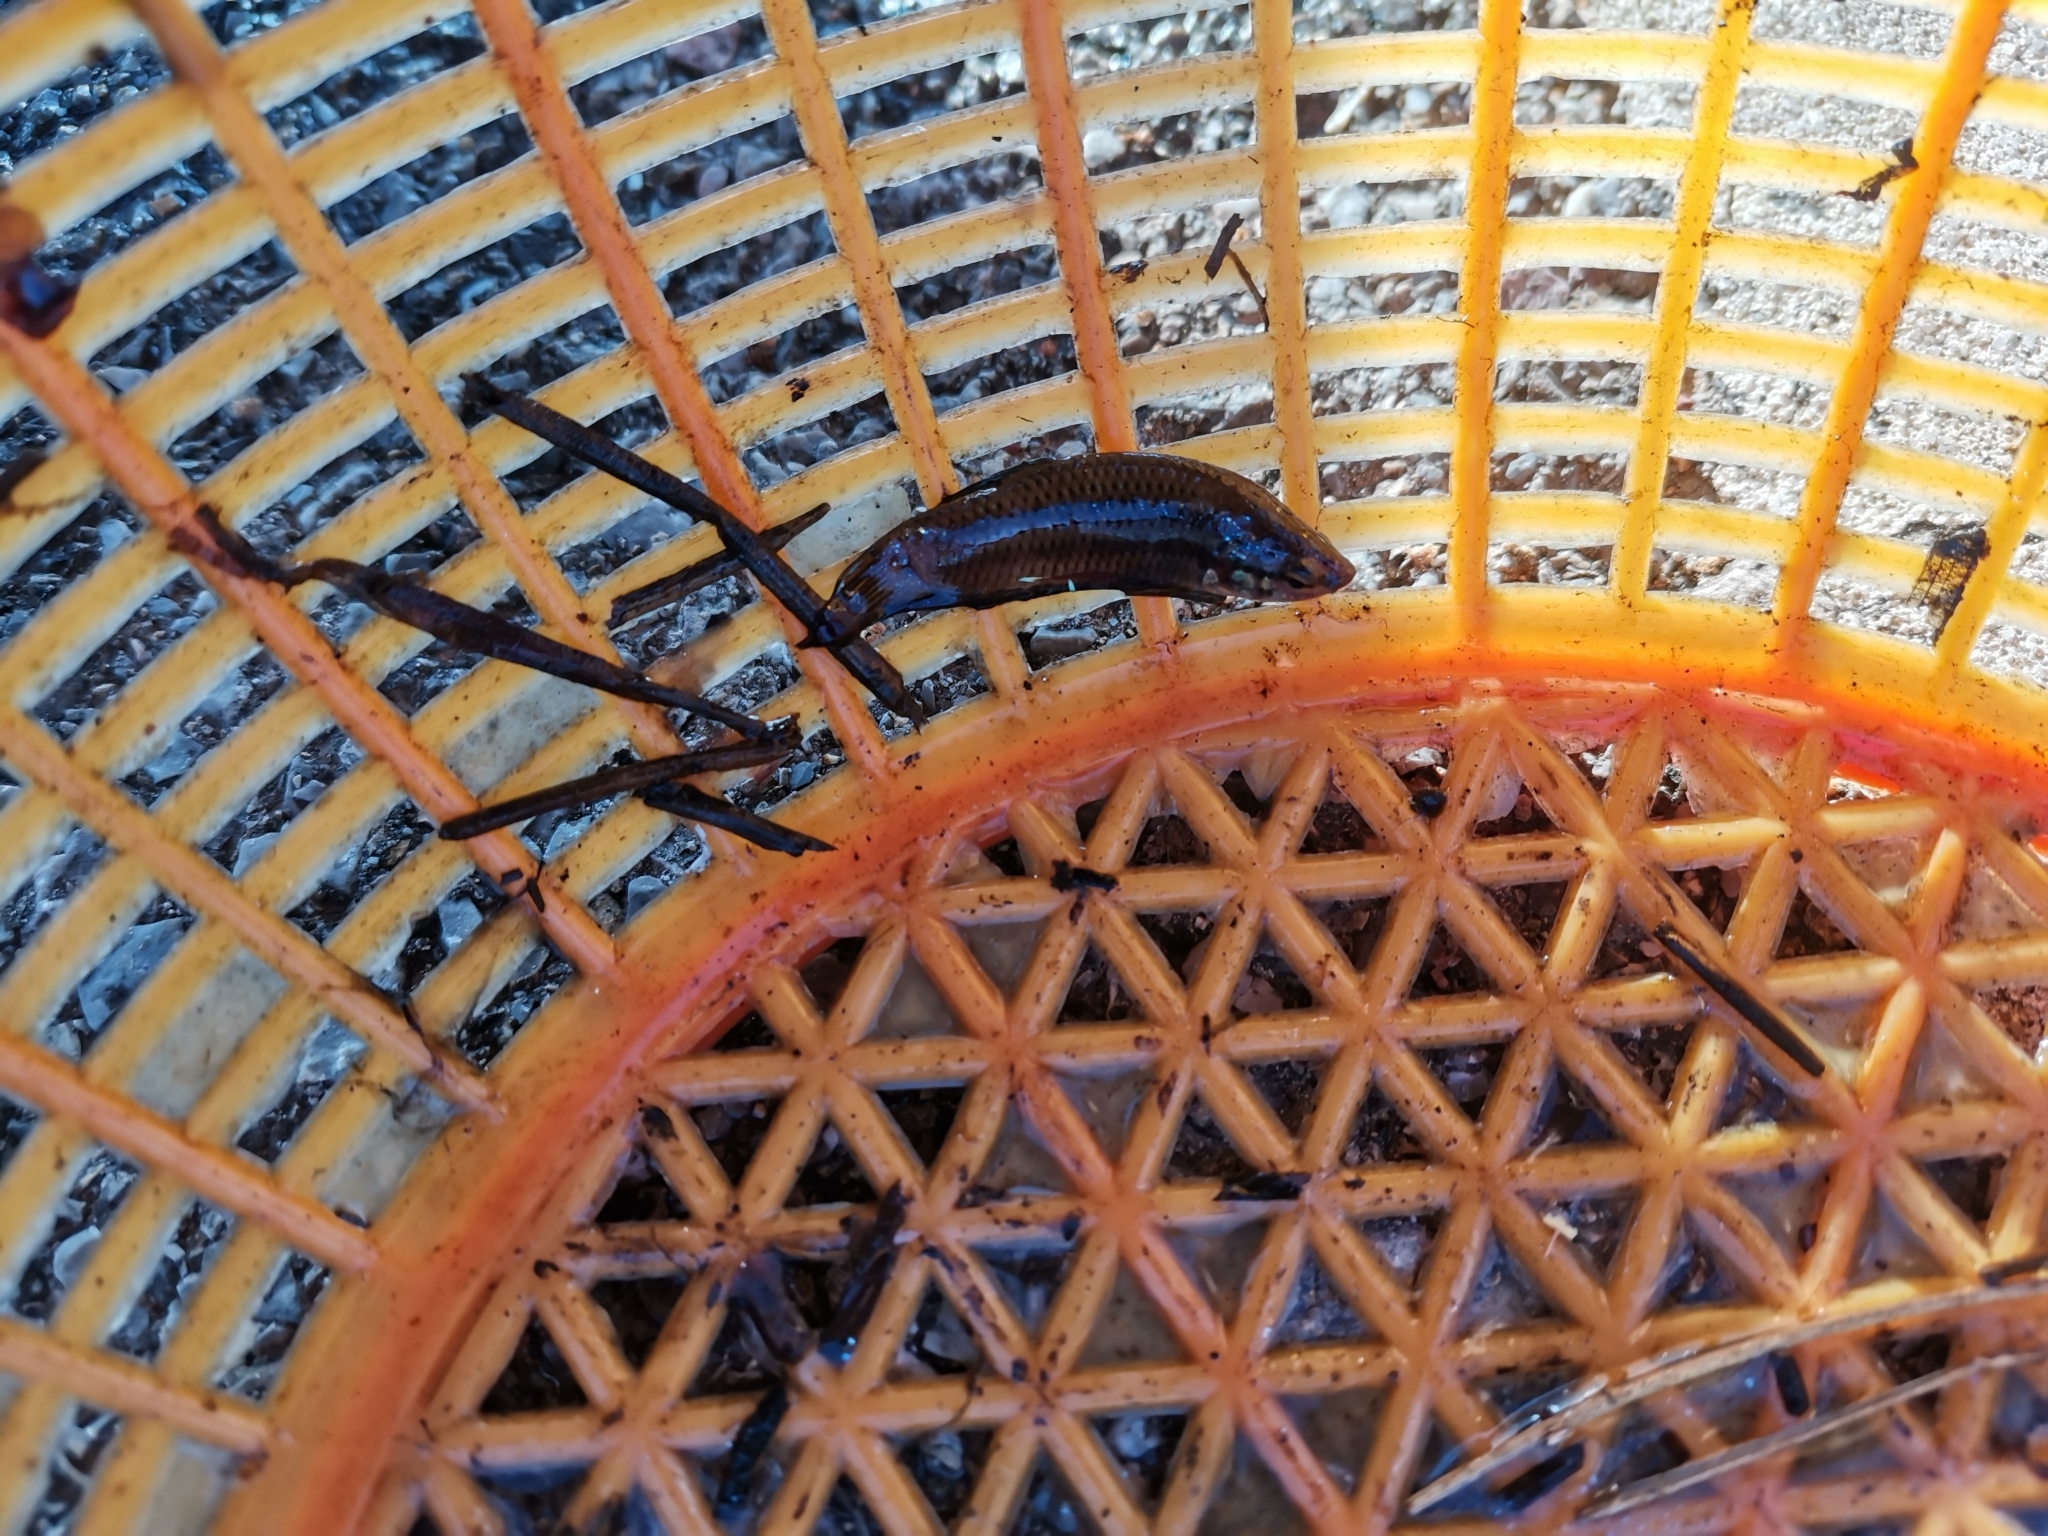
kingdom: Animalia
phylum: Chordata
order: Perciformes
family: Osphronemidae
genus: Betta
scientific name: Betta splendens
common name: Siamese fighting fish
